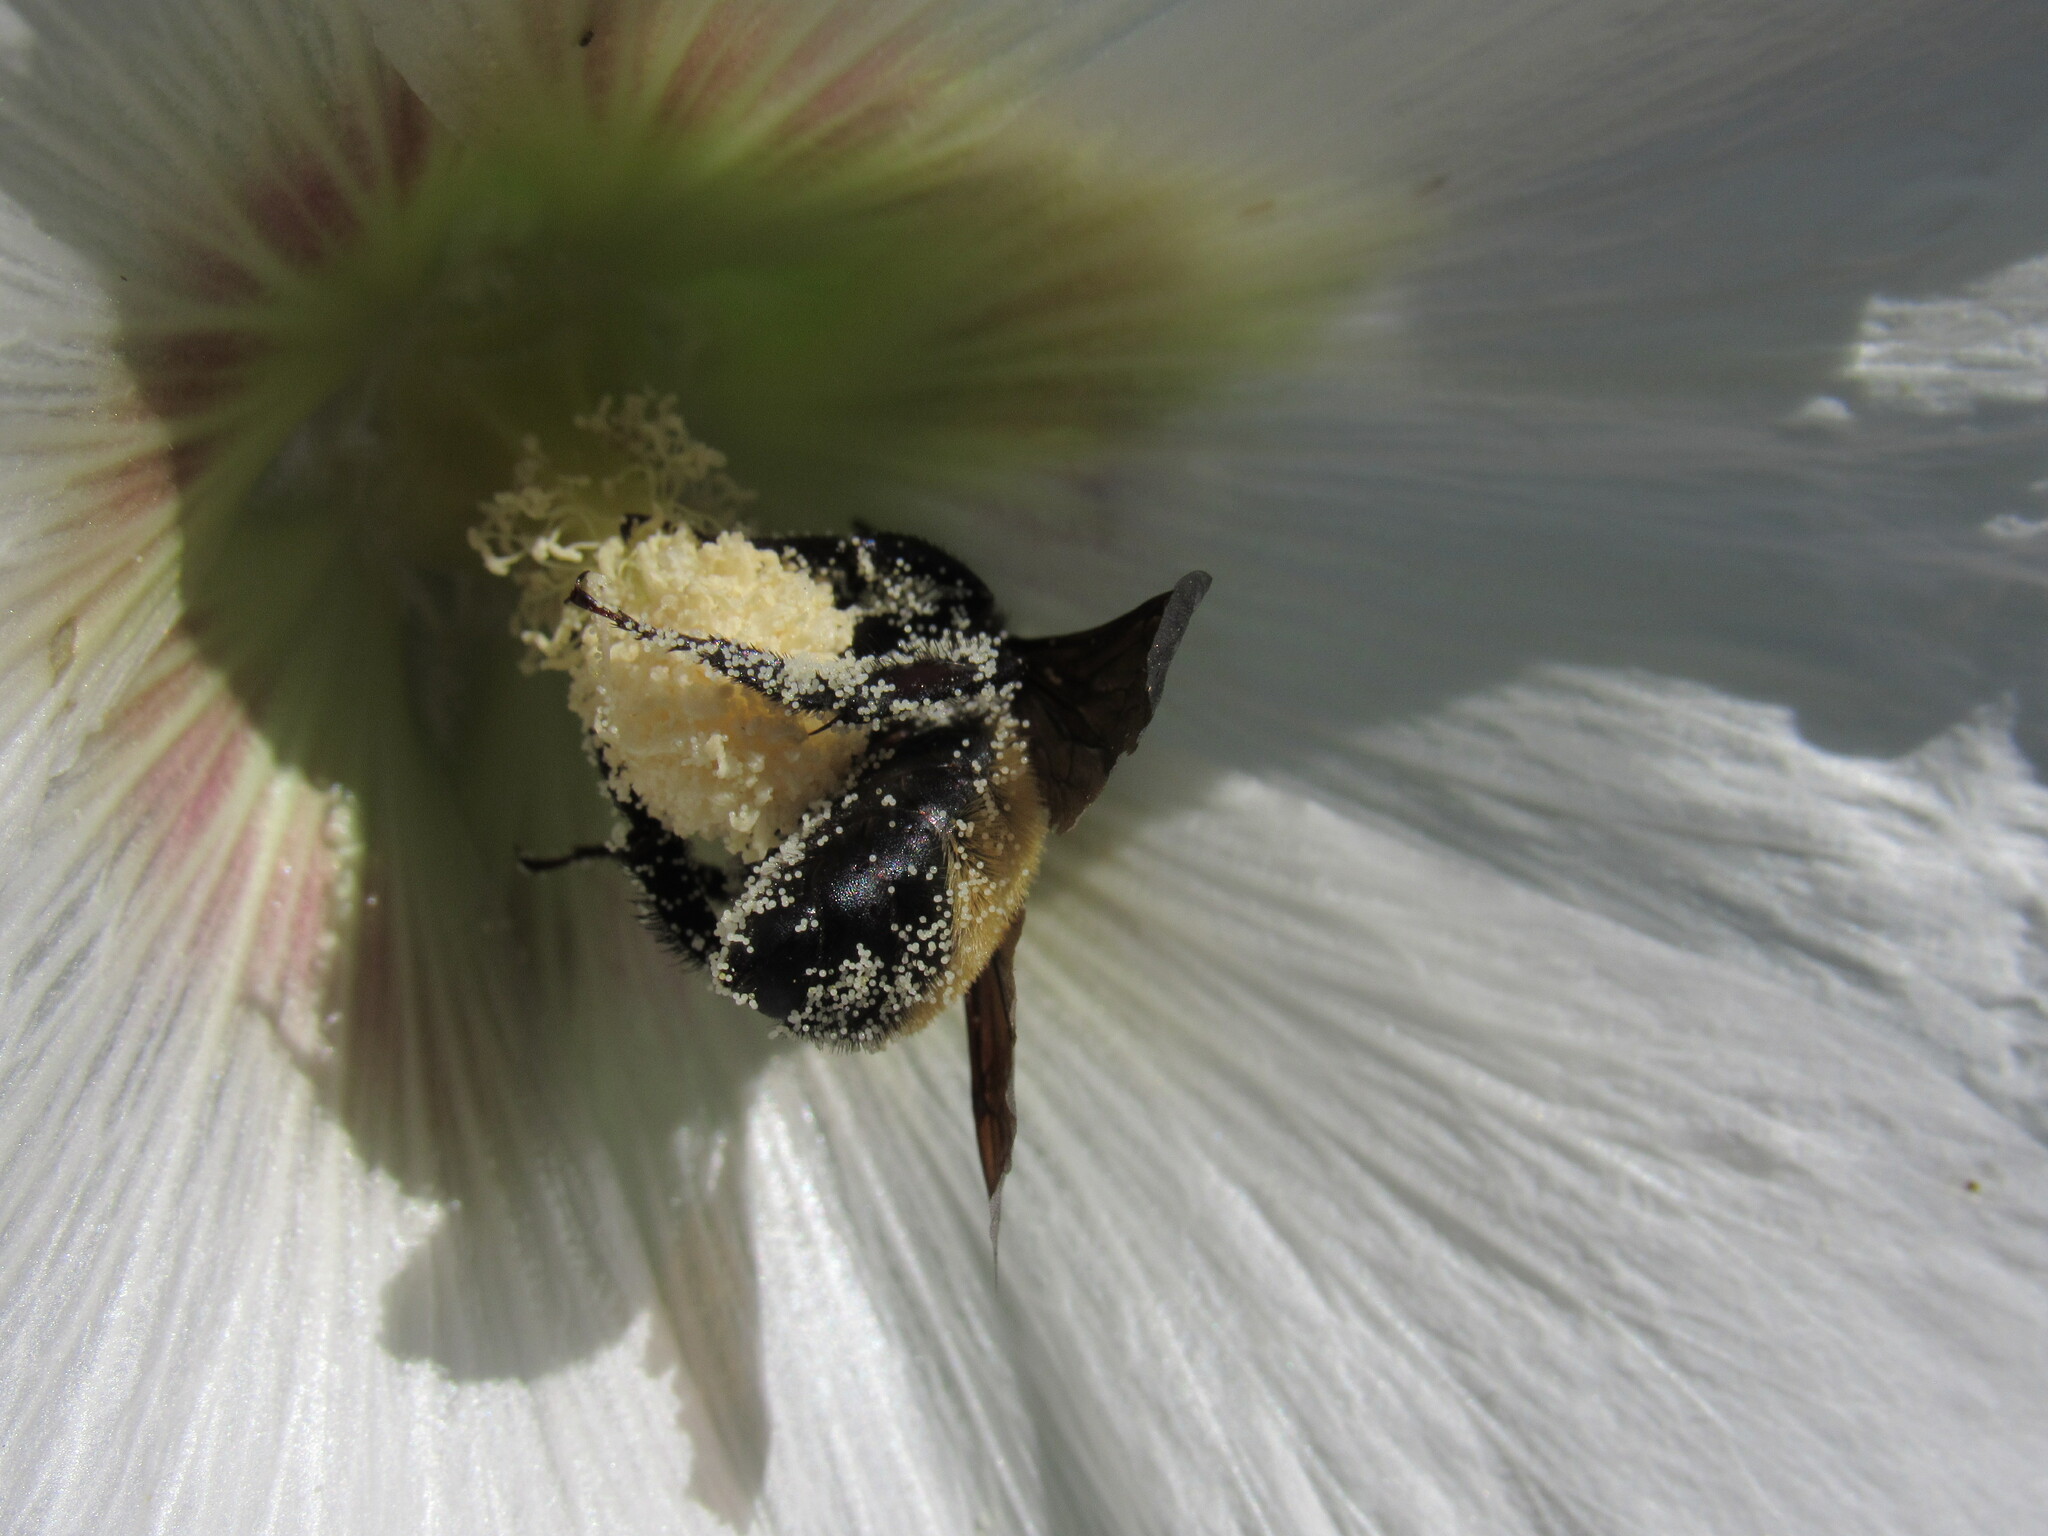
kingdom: Animalia
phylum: Arthropoda
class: Insecta
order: Hymenoptera
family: Apidae
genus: Bombus
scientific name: Bombus pensylvanicus
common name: Bumble bee
